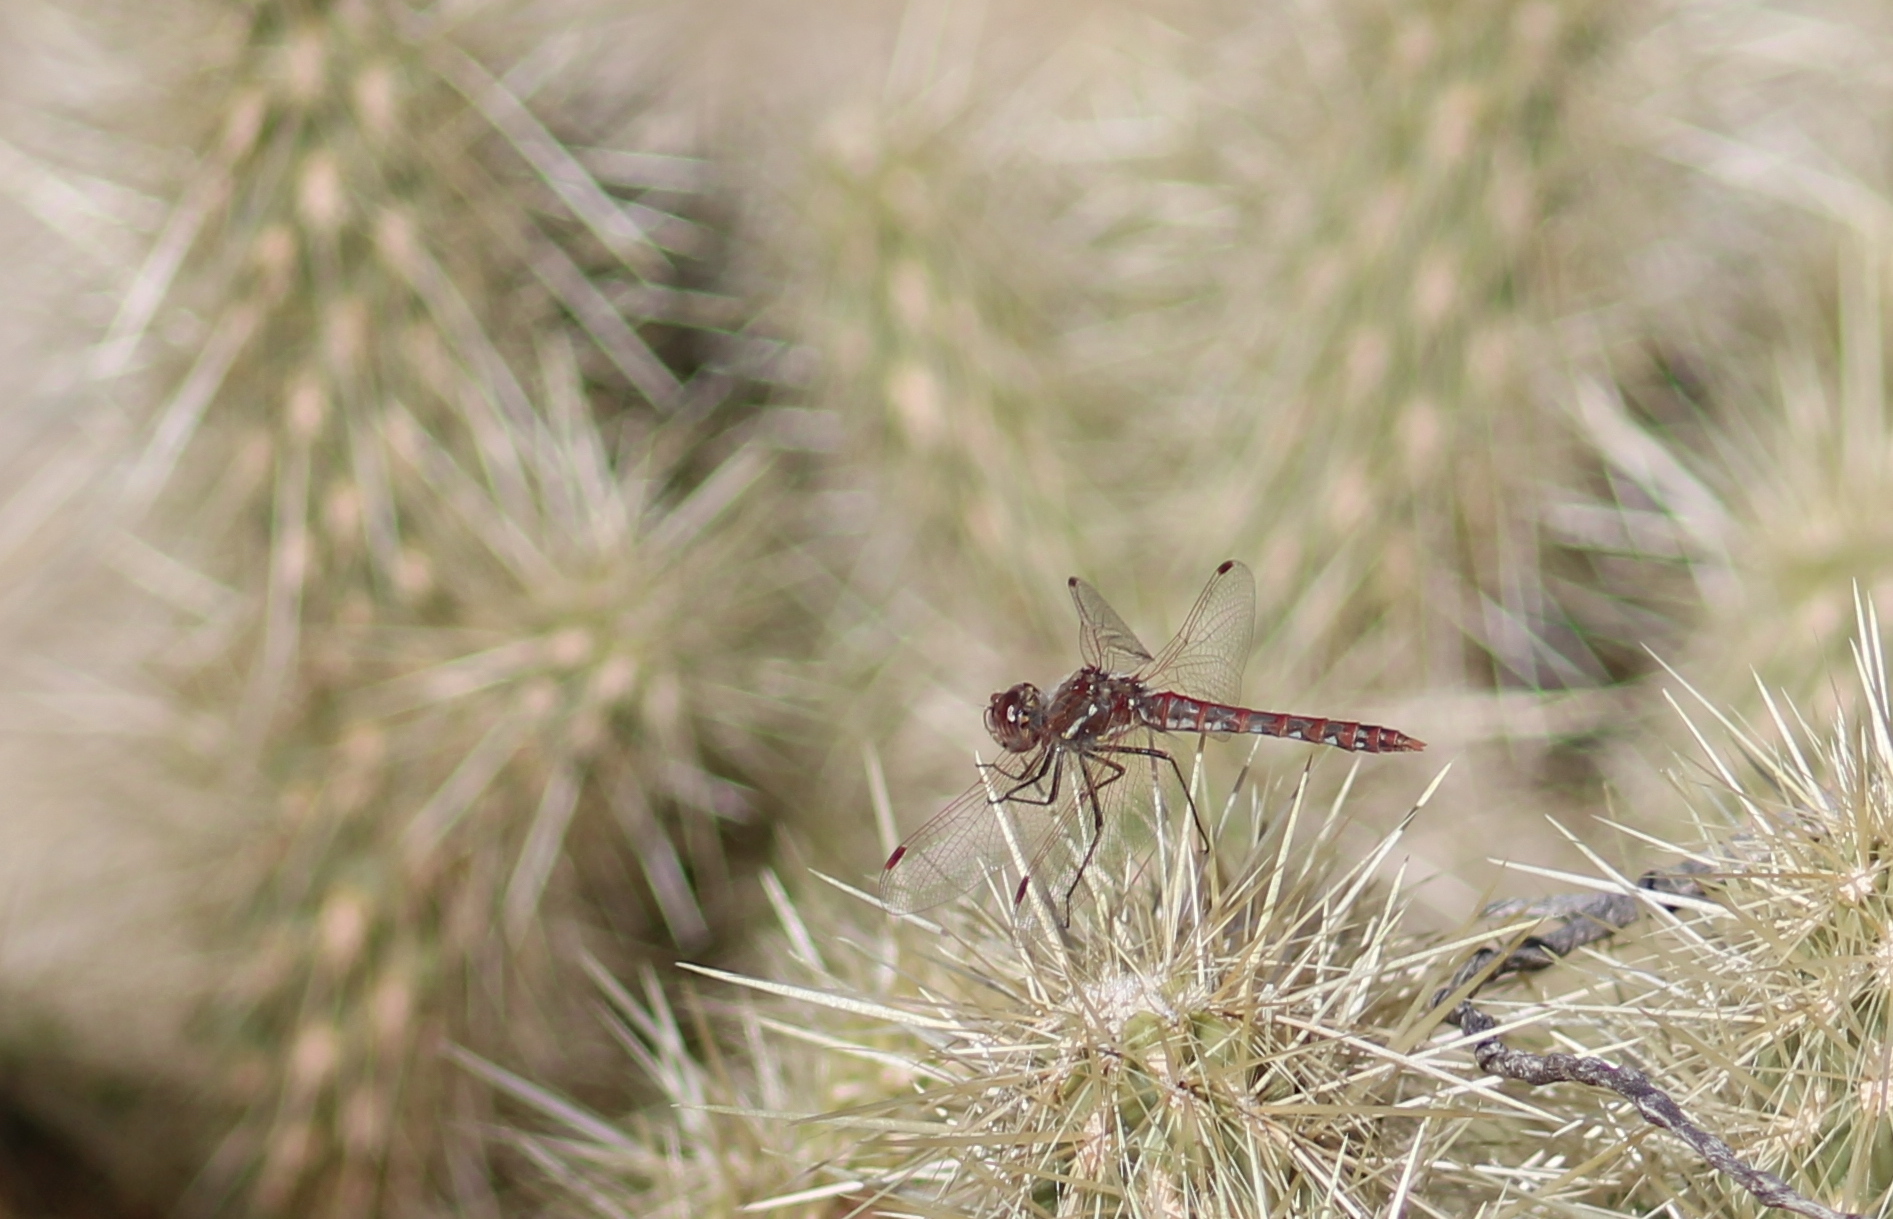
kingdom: Animalia
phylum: Arthropoda
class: Insecta
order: Odonata
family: Libellulidae
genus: Sympetrum
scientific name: Sympetrum corruptum
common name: Variegated meadowhawk
